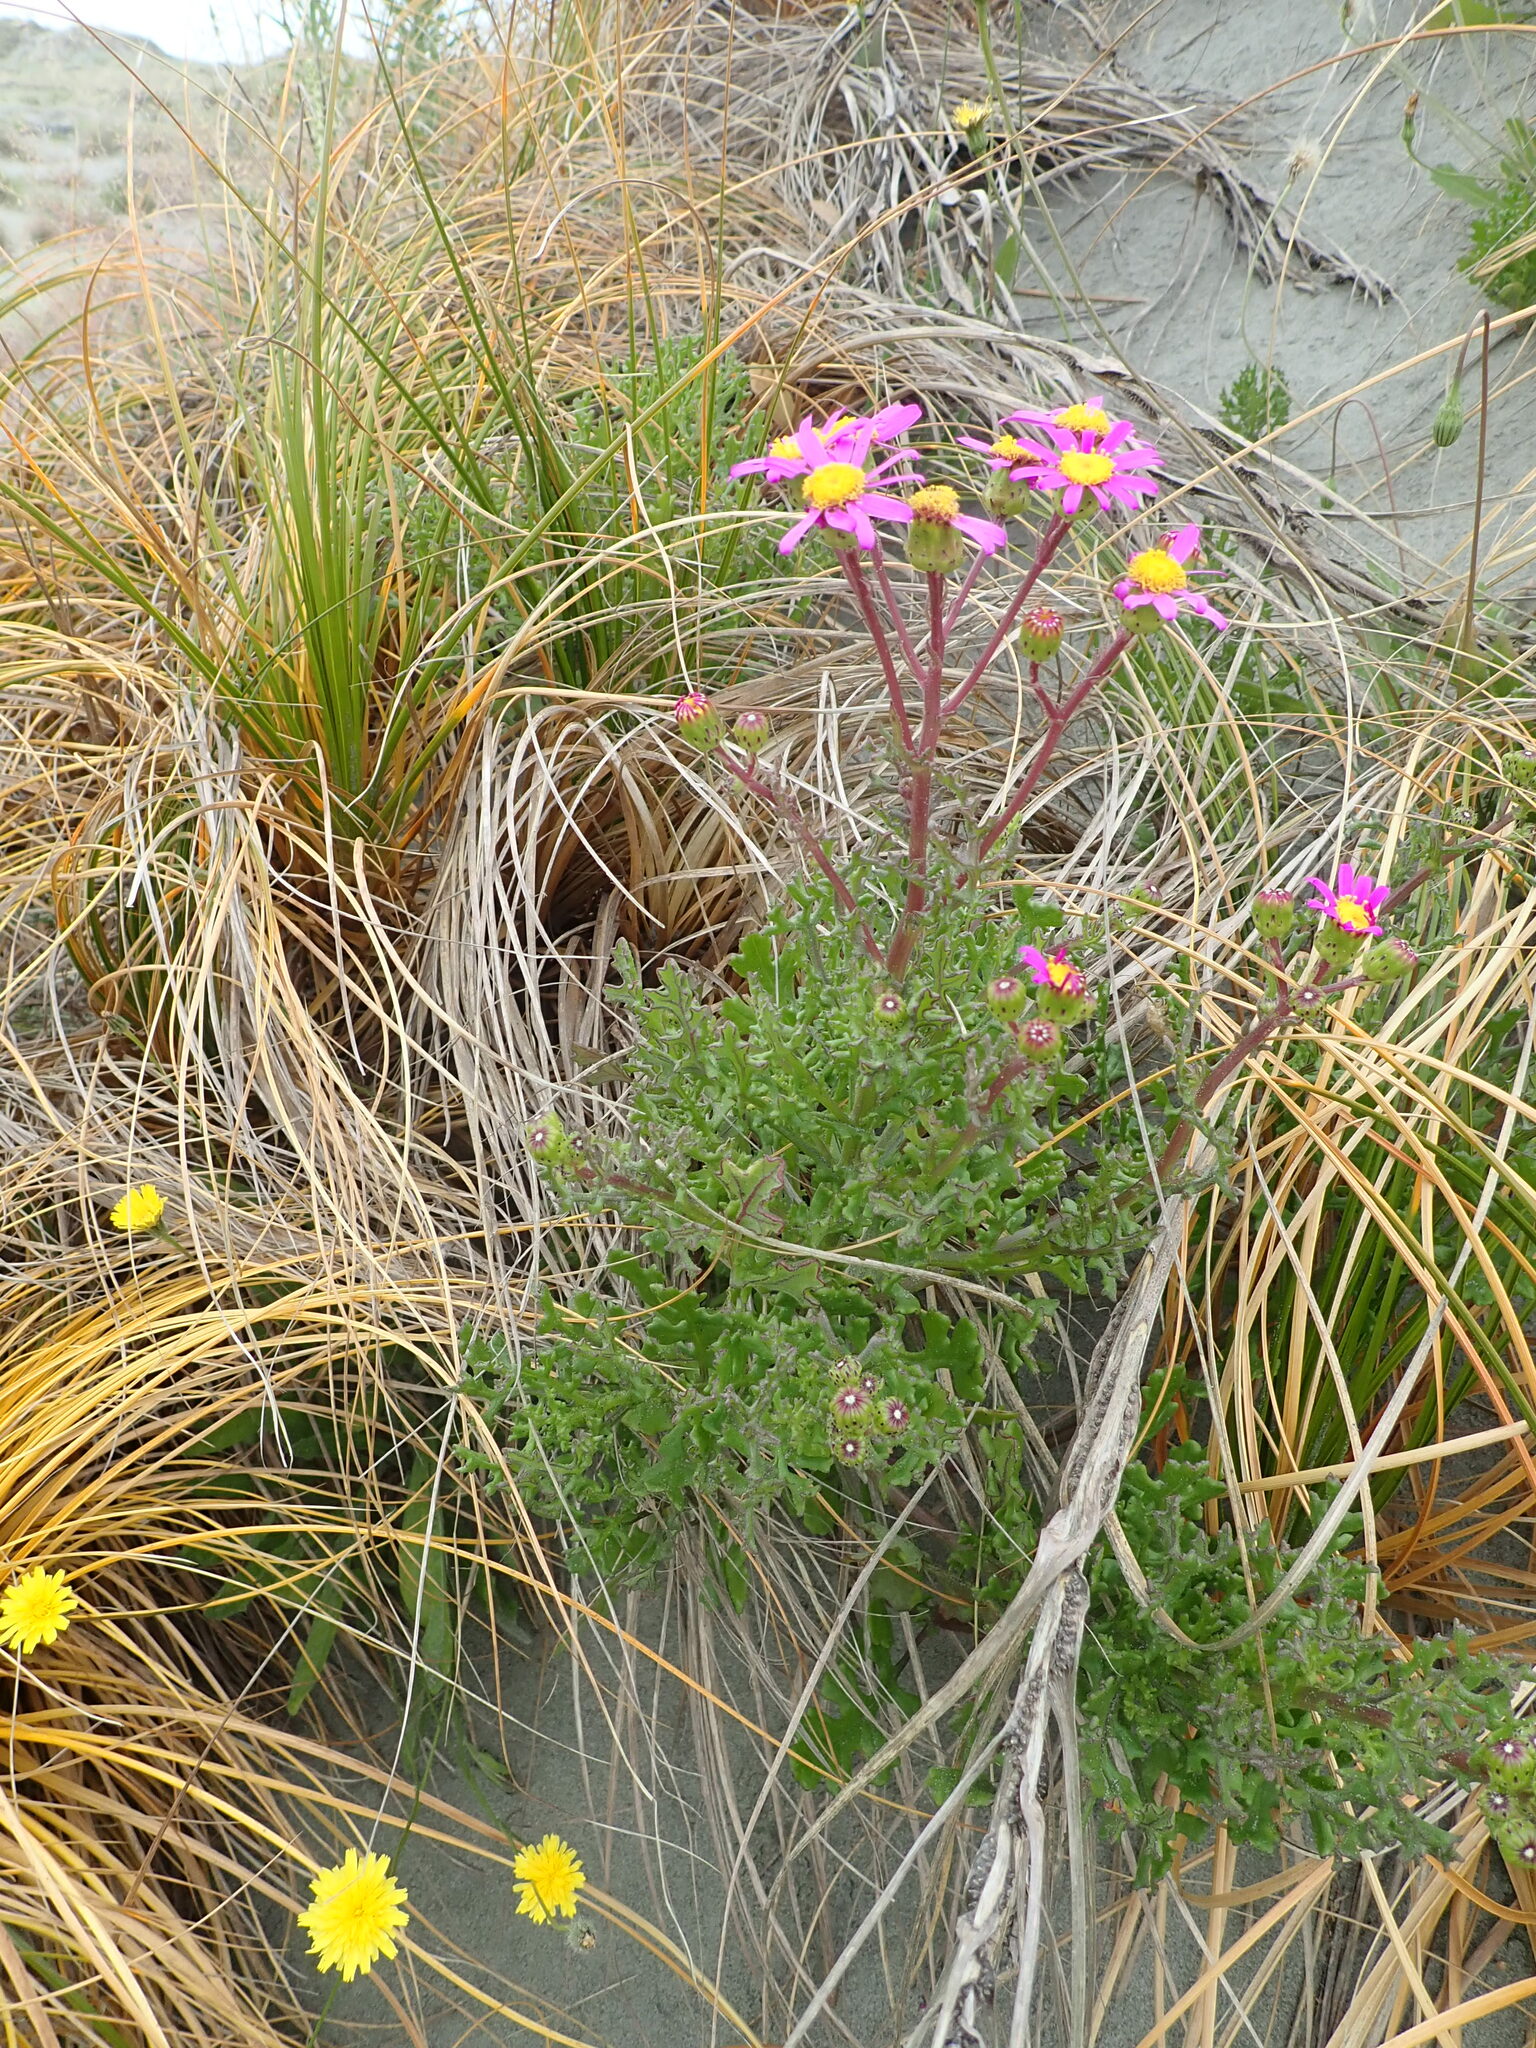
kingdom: Plantae
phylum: Tracheophyta
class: Magnoliopsida
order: Asterales
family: Asteraceae
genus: Senecio
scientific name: Senecio elegans
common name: Purple groundsel
